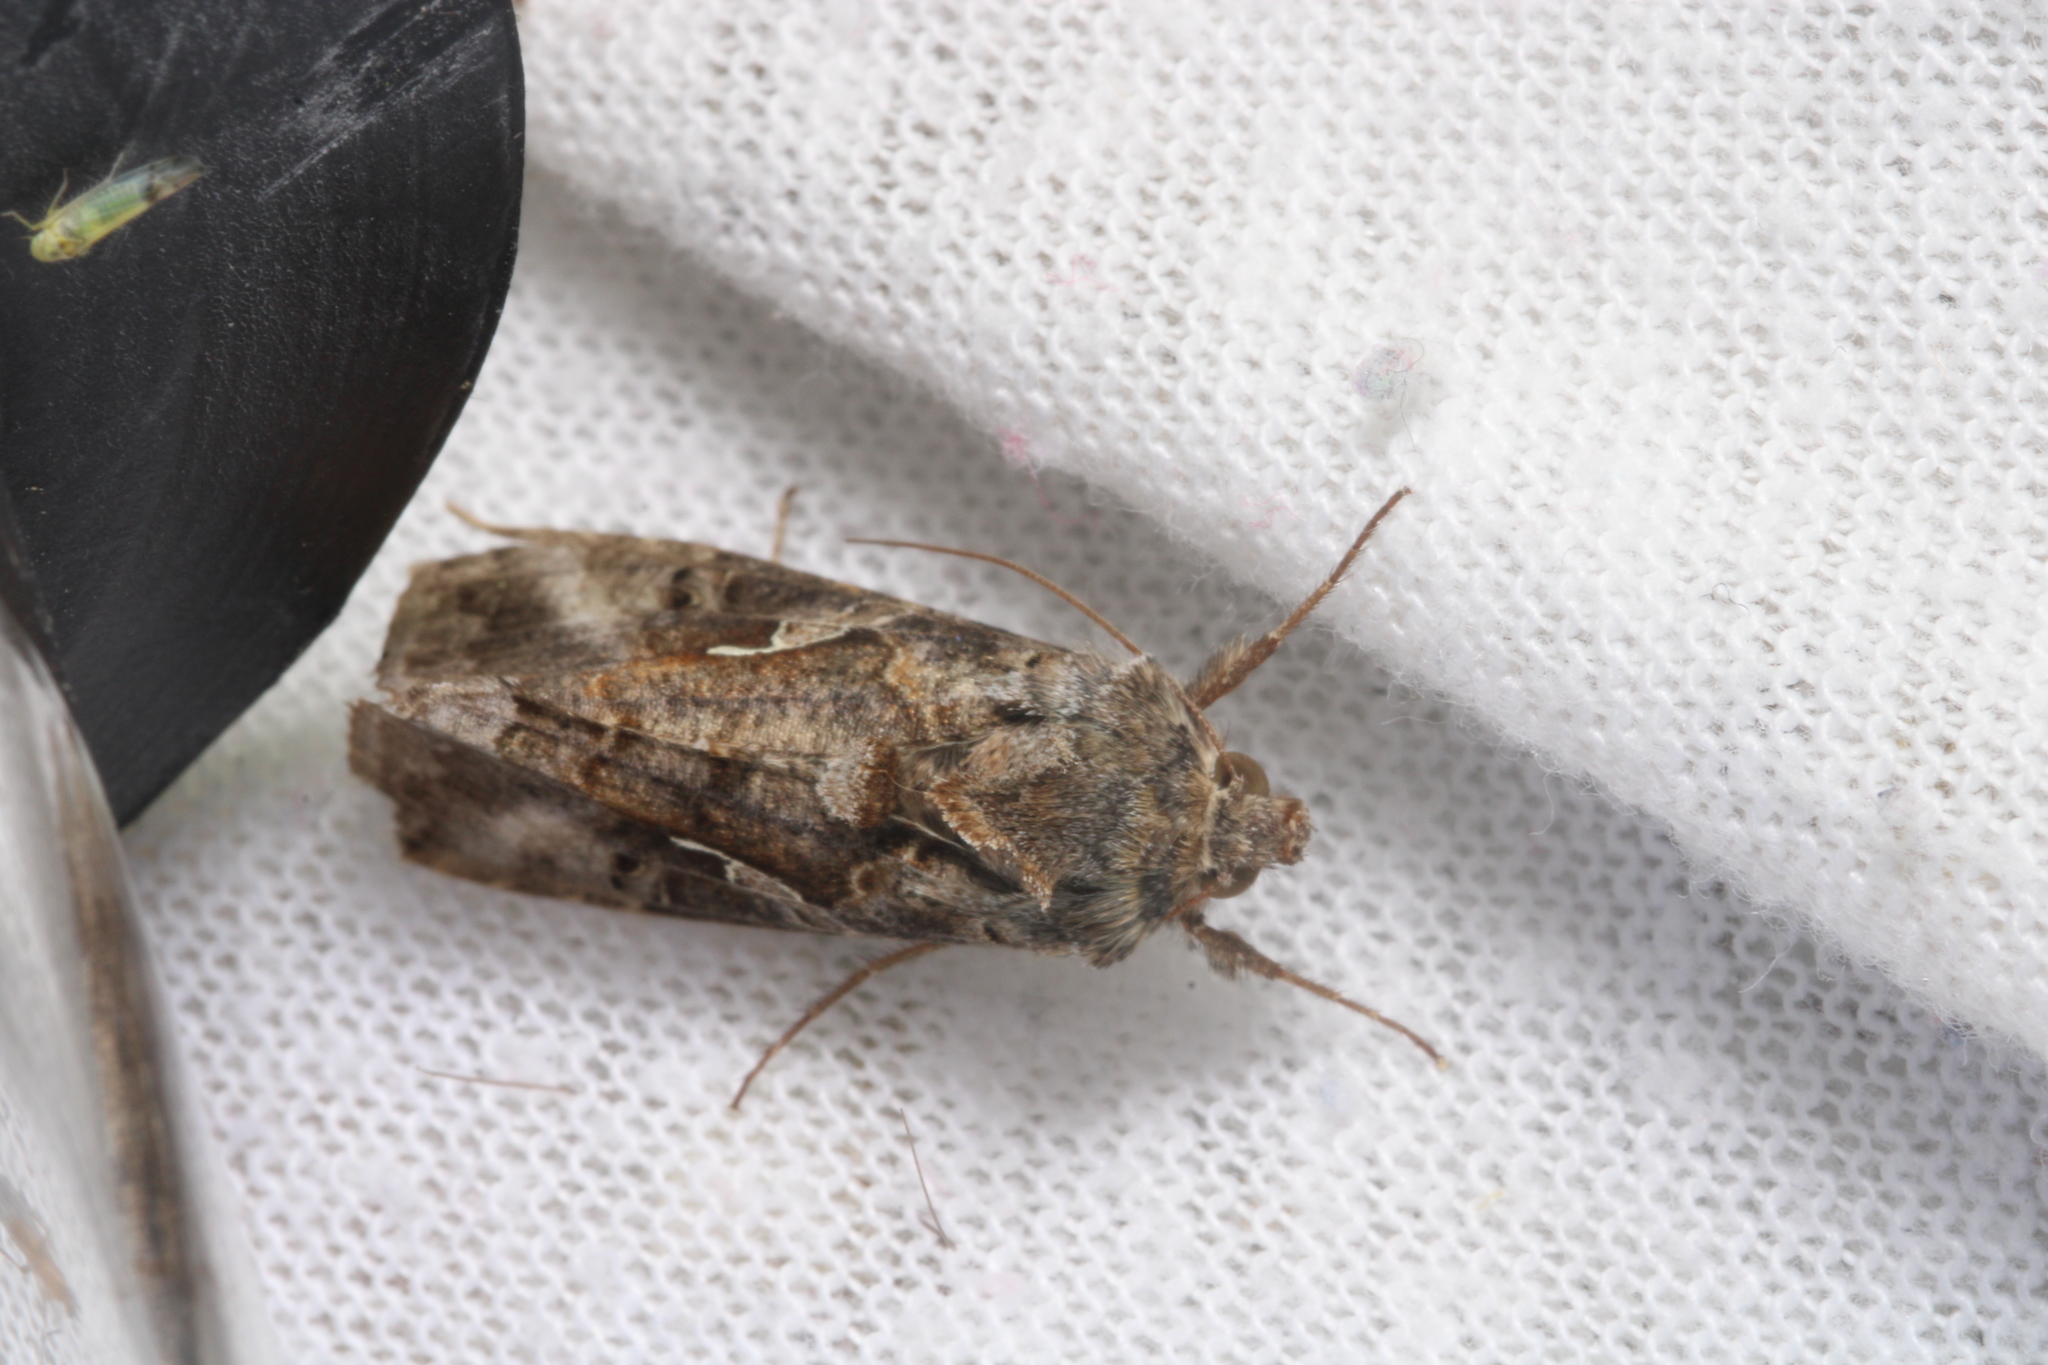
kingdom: Animalia
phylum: Arthropoda
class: Insecta
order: Lepidoptera
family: Noctuidae
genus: Autographa
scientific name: Autographa gamma
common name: Silver y
